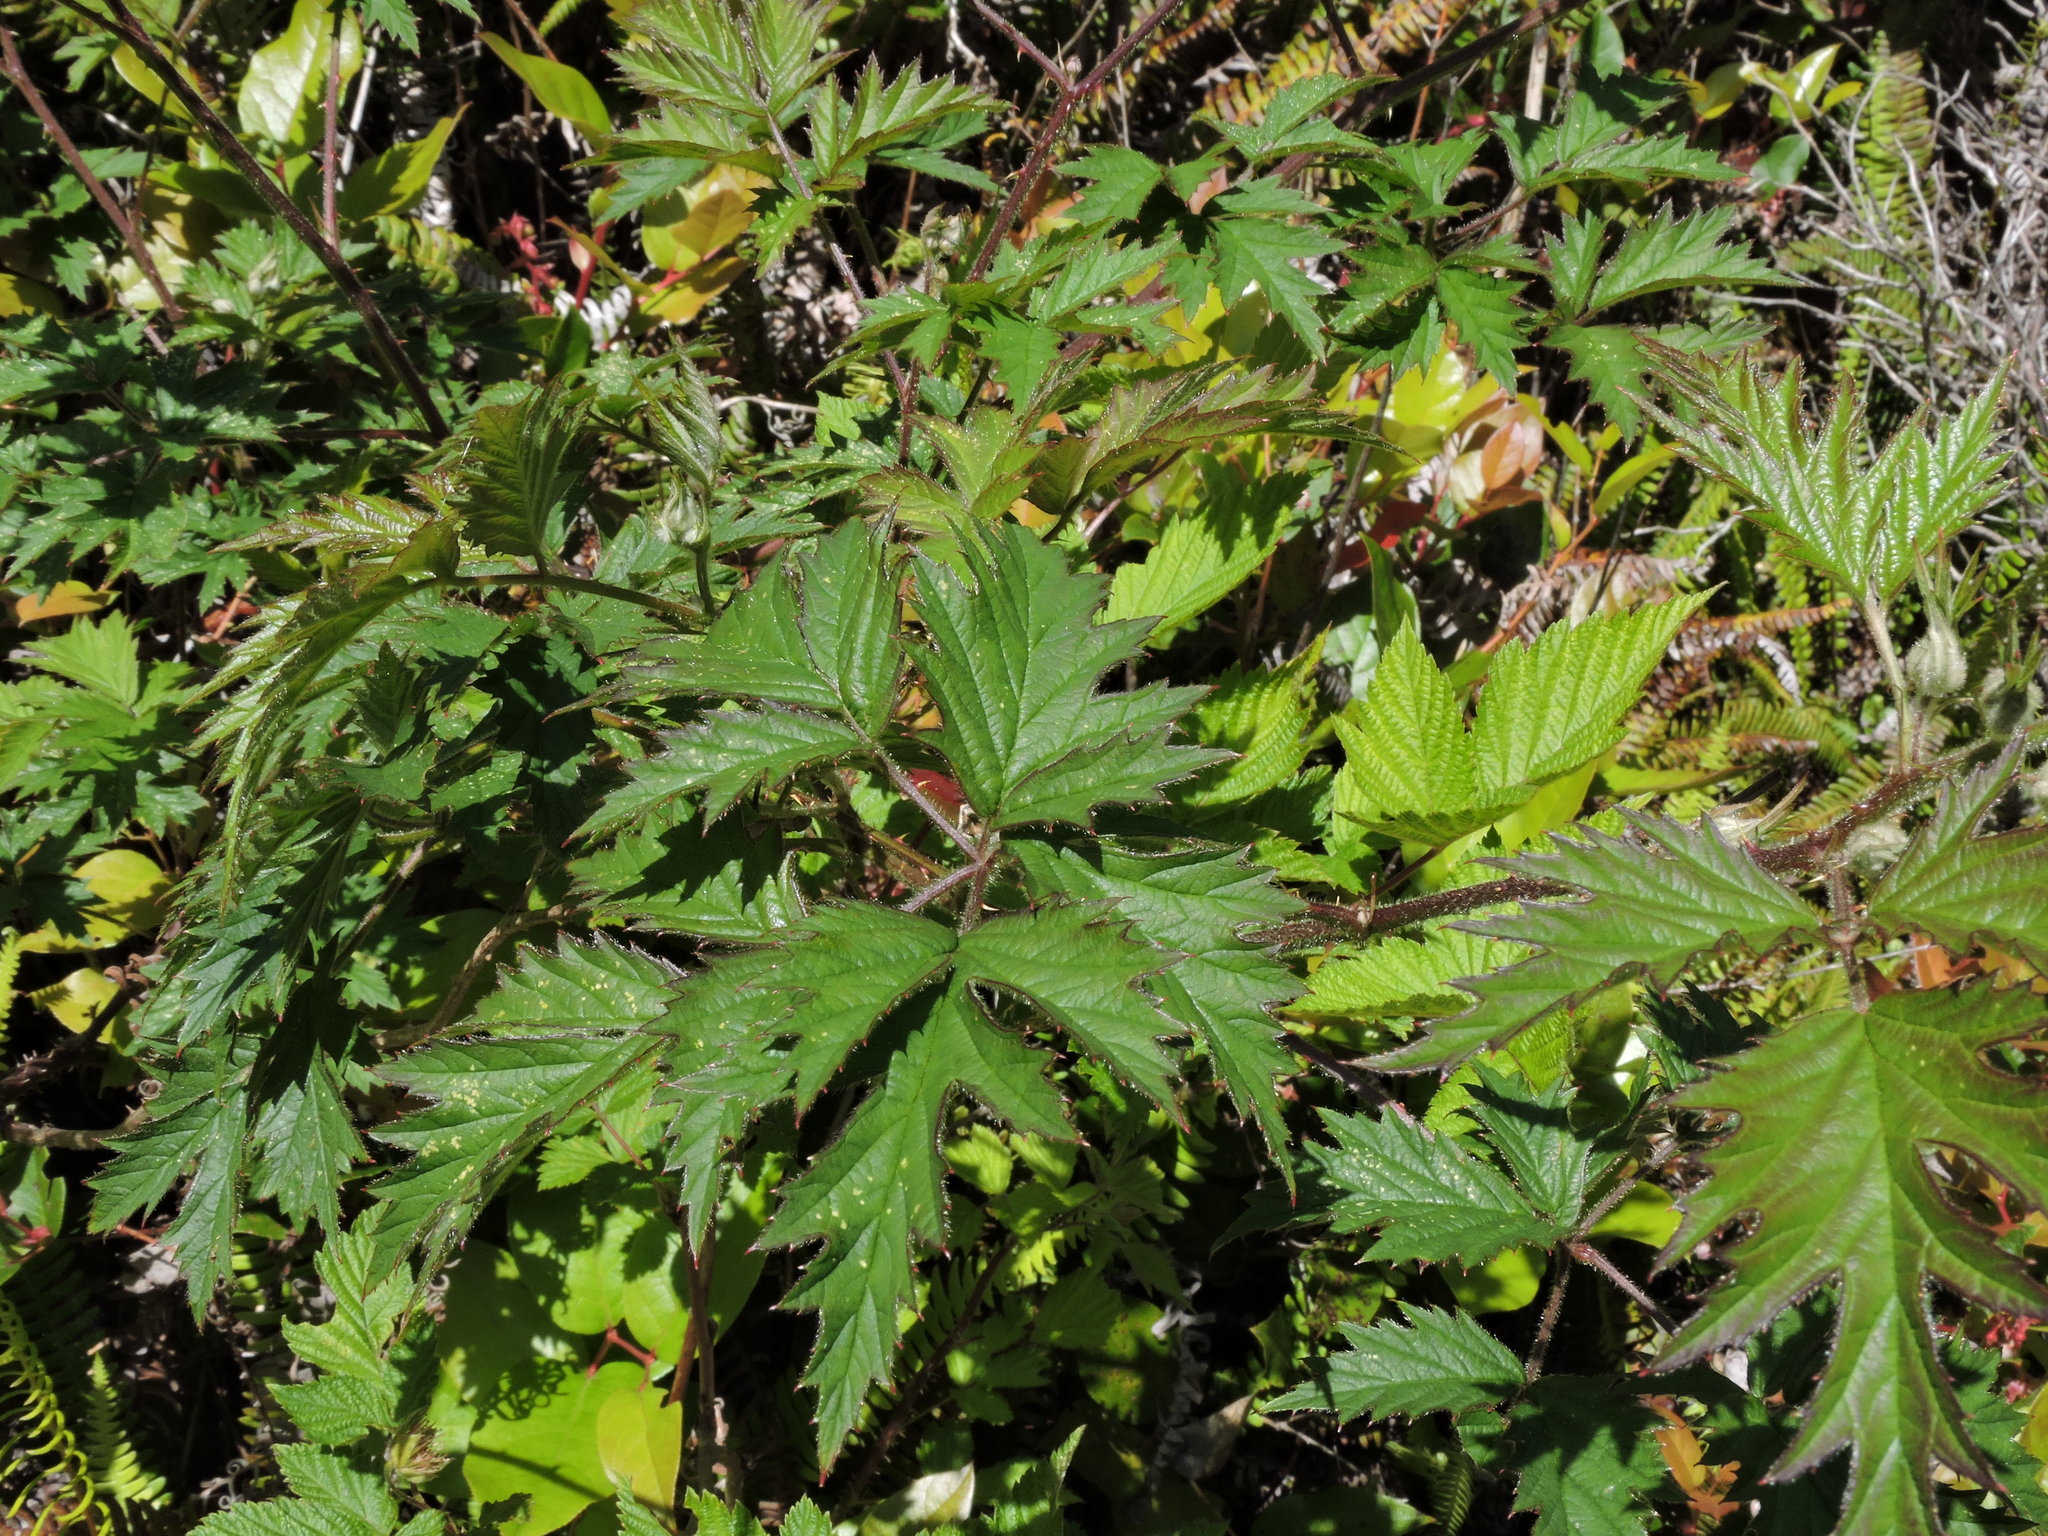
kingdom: Plantae
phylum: Tracheophyta
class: Magnoliopsida
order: Rosales
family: Rosaceae
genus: Rubus
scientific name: Rubus laciniatus
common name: Evergreen blackberry
